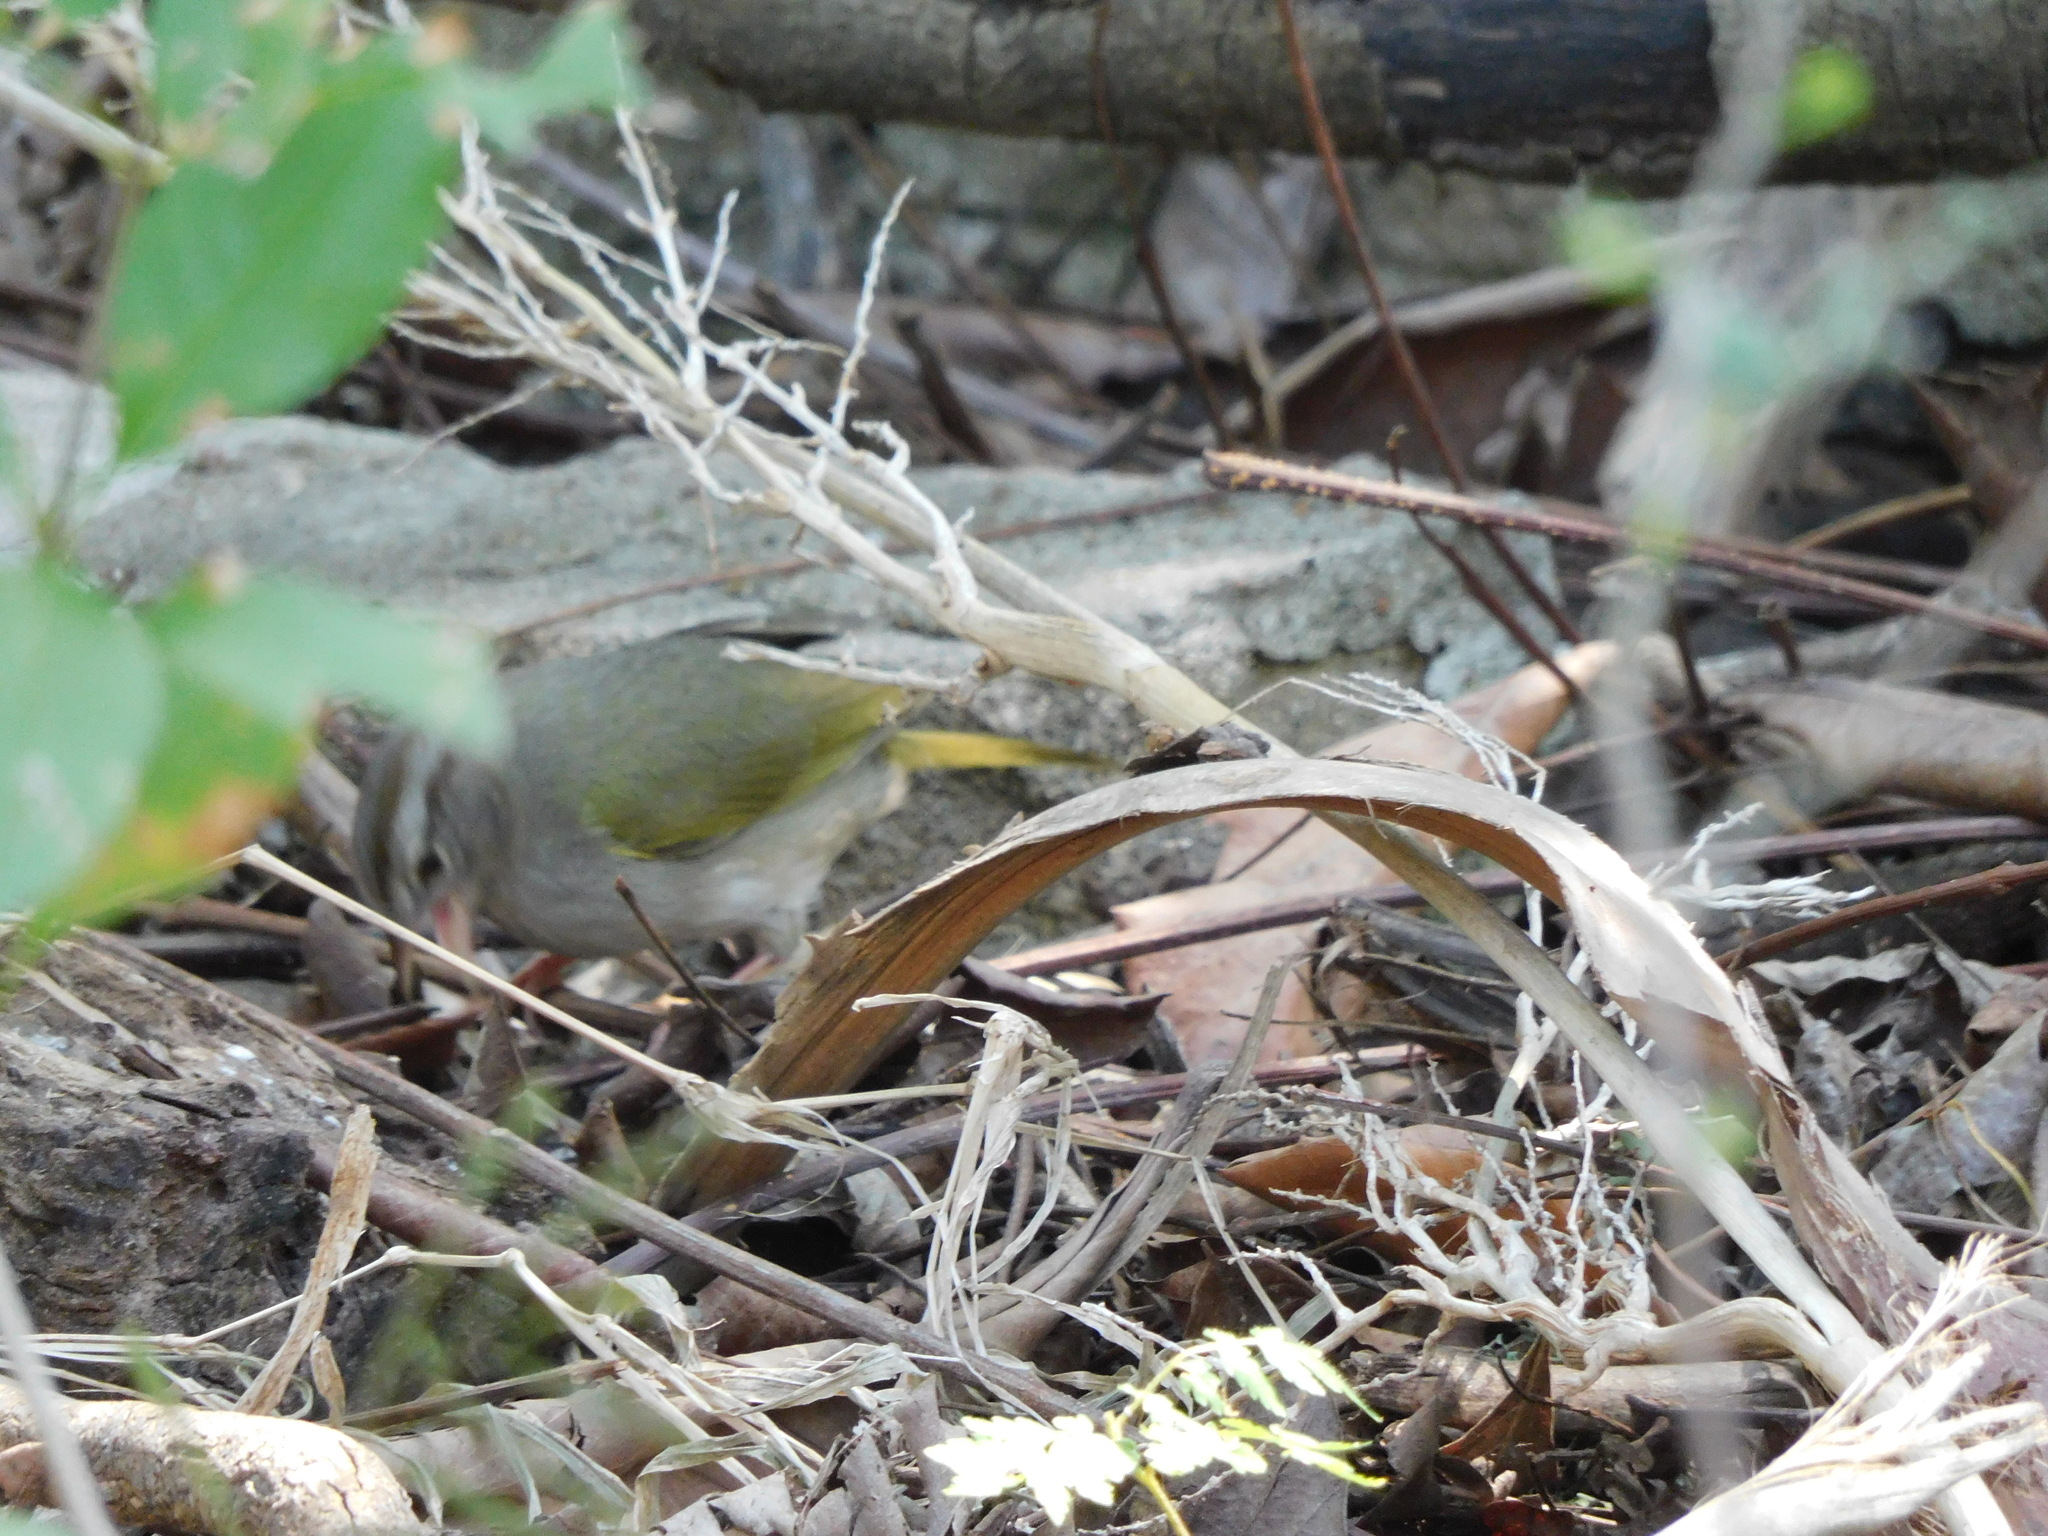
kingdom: Animalia
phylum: Chordata
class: Aves
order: Passeriformes
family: Passerellidae
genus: Arremonops
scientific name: Arremonops rufivirgatus
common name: Olive sparrow
